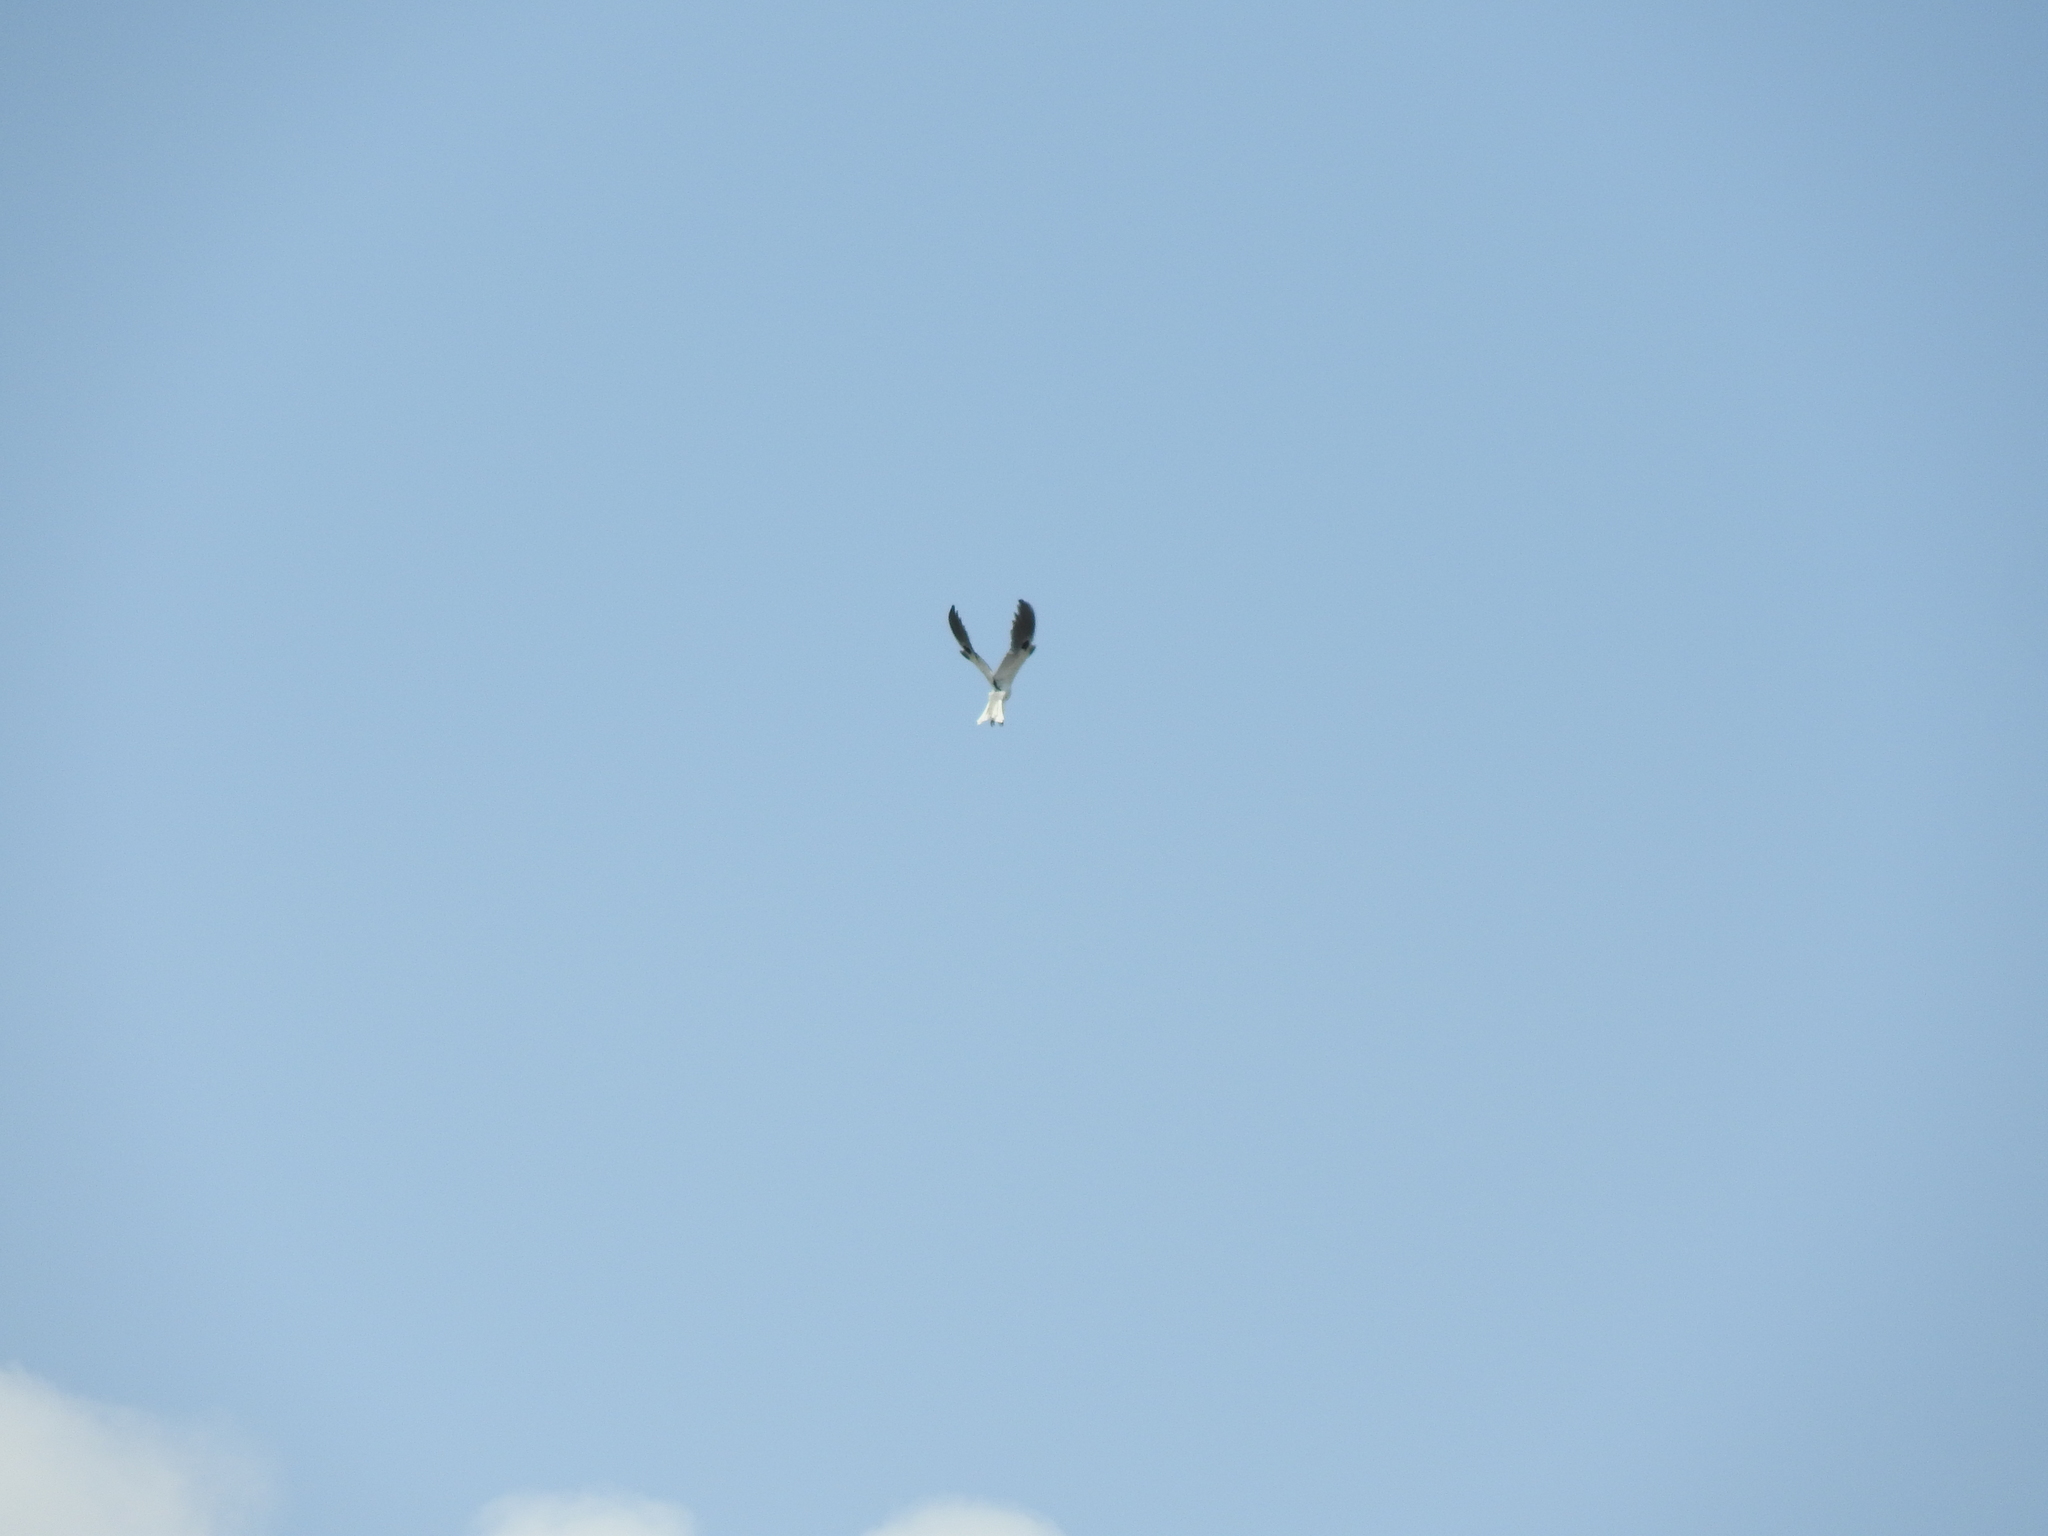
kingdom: Animalia
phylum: Chordata
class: Aves
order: Accipitriformes
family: Accipitridae
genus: Elanus
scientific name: Elanus leucurus
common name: White-tailed kite
